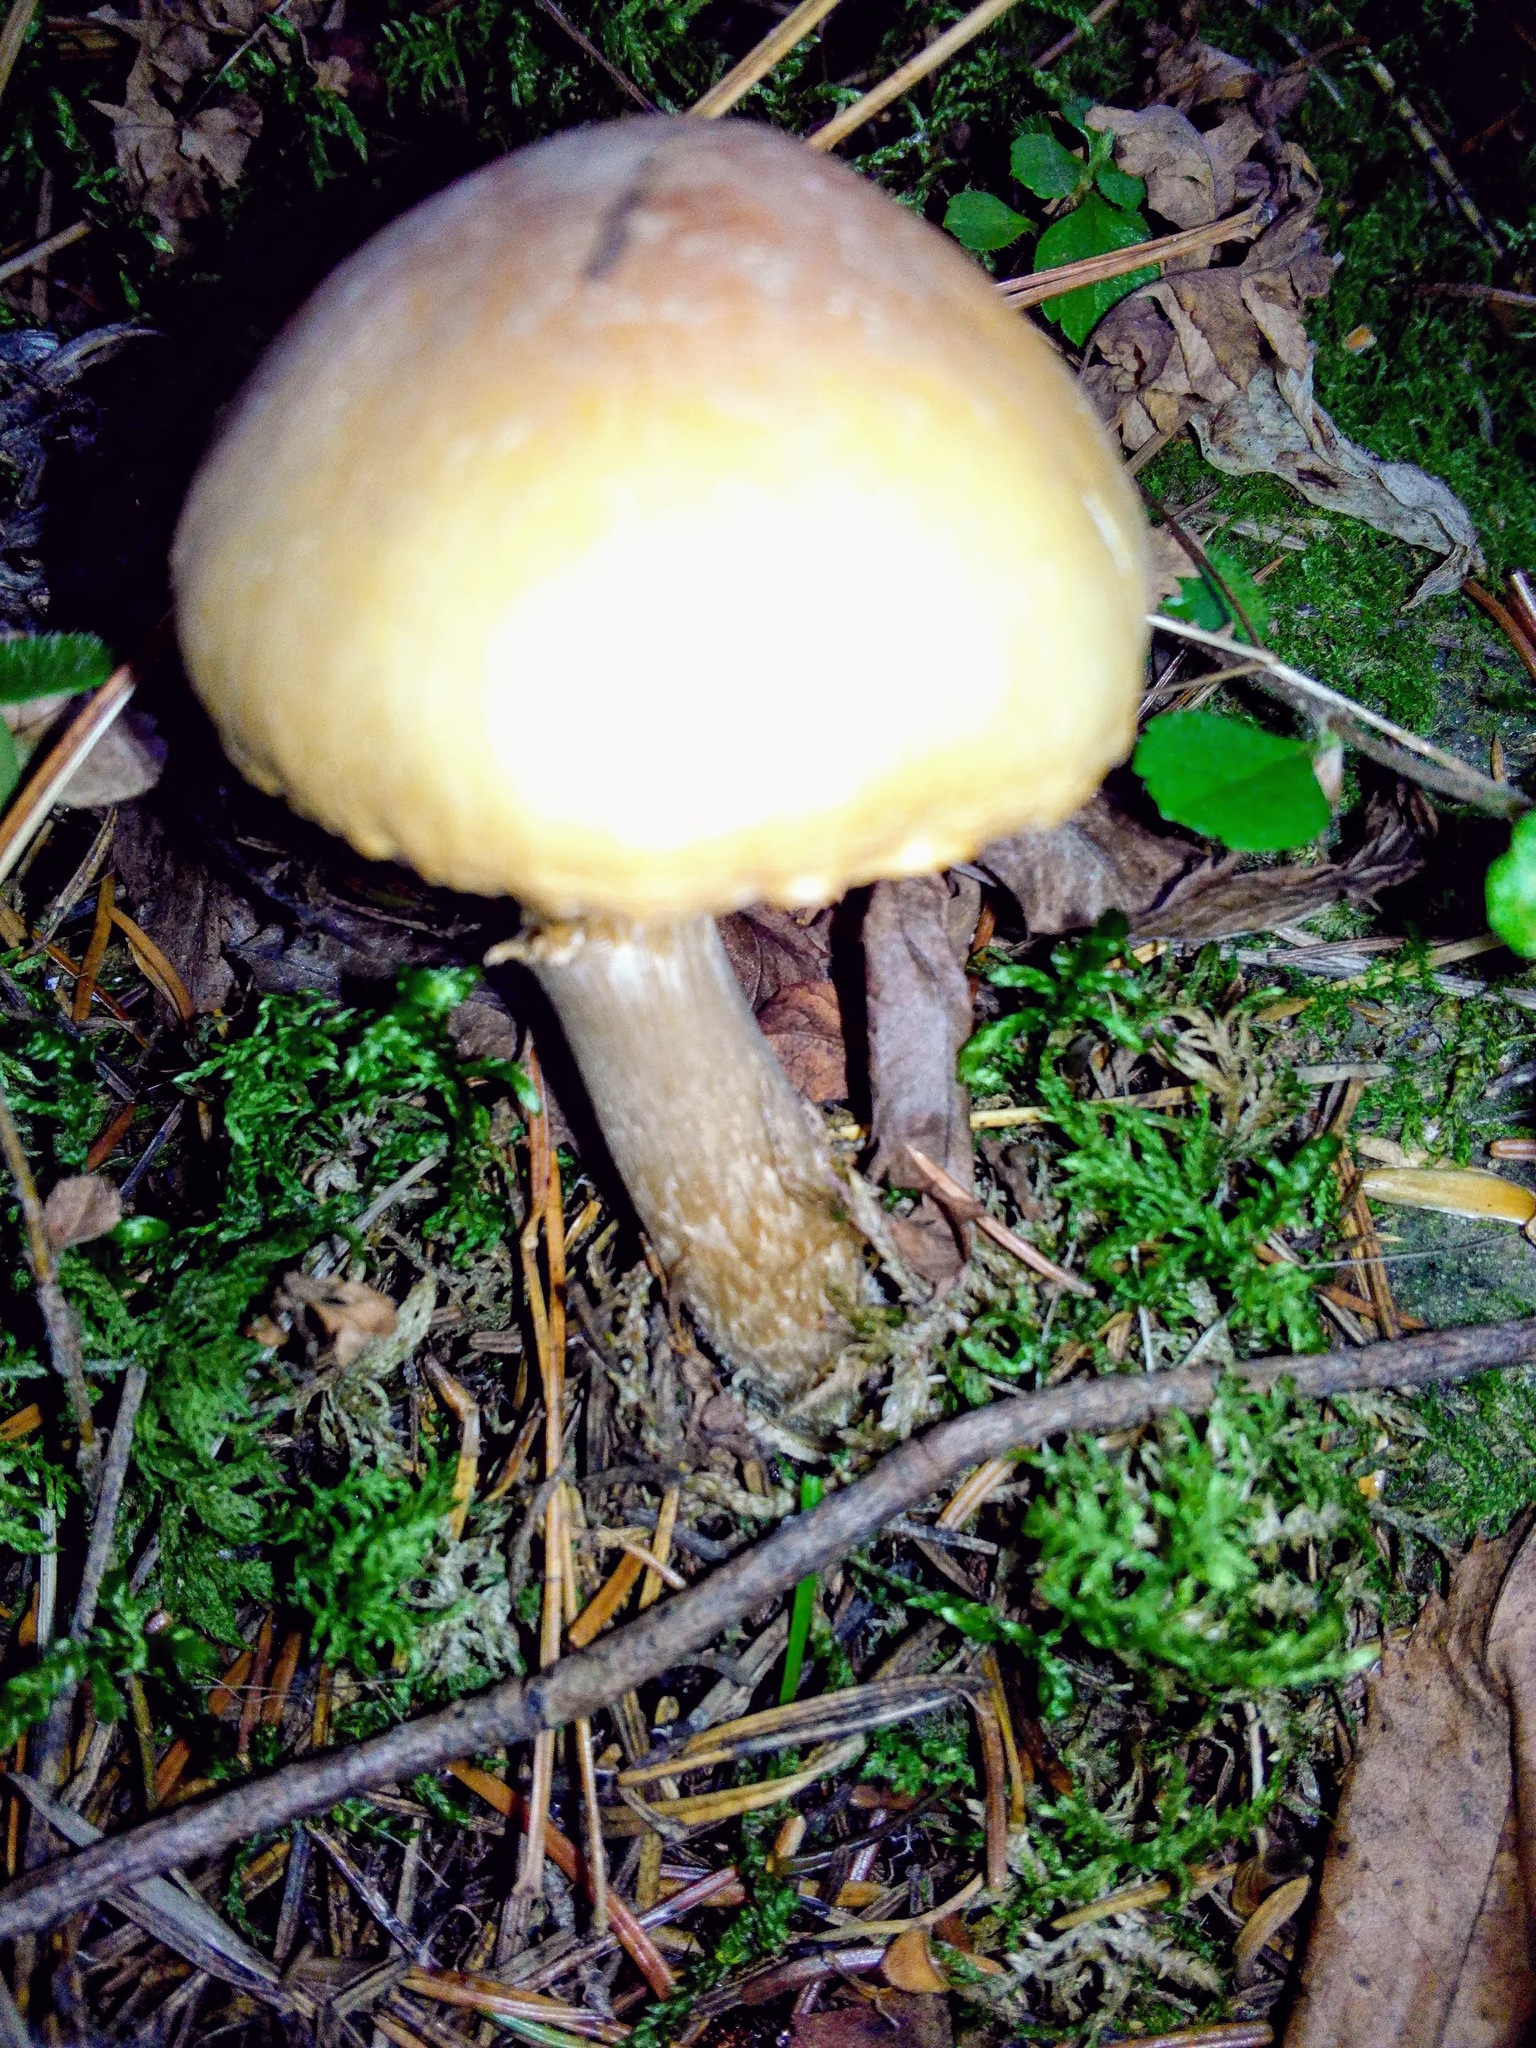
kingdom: Fungi
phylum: Basidiomycota
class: Agaricomycetes
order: Agaricales
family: Cortinariaceae
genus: Cortinarius
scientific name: Cortinarius caperatus
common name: The gypsy
